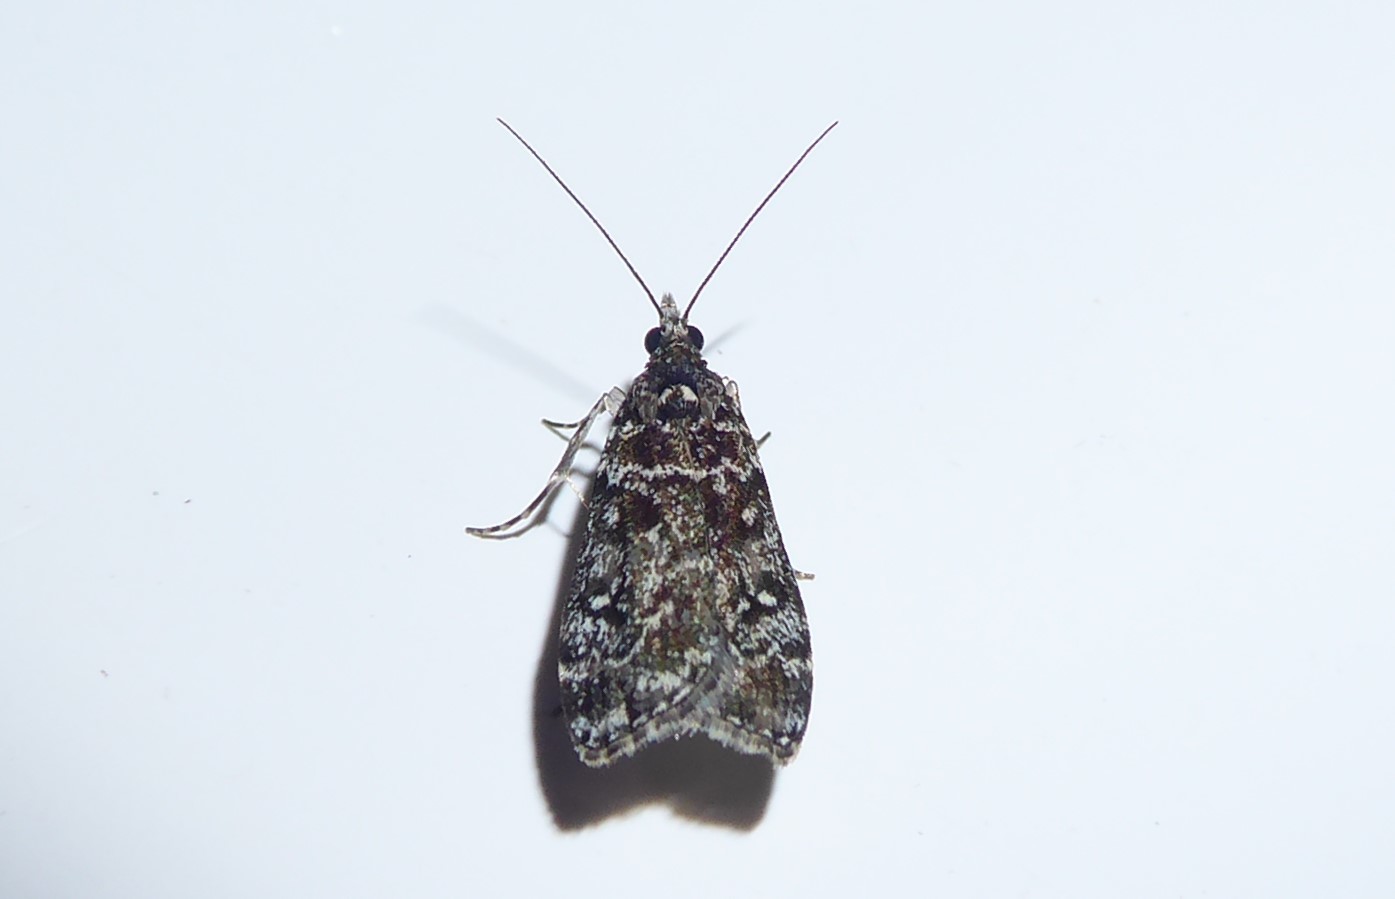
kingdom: Animalia
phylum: Arthropoda
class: Insecta
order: Lepidoptera
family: Crambidae
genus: Eudonia
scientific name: Eudonia philerga
